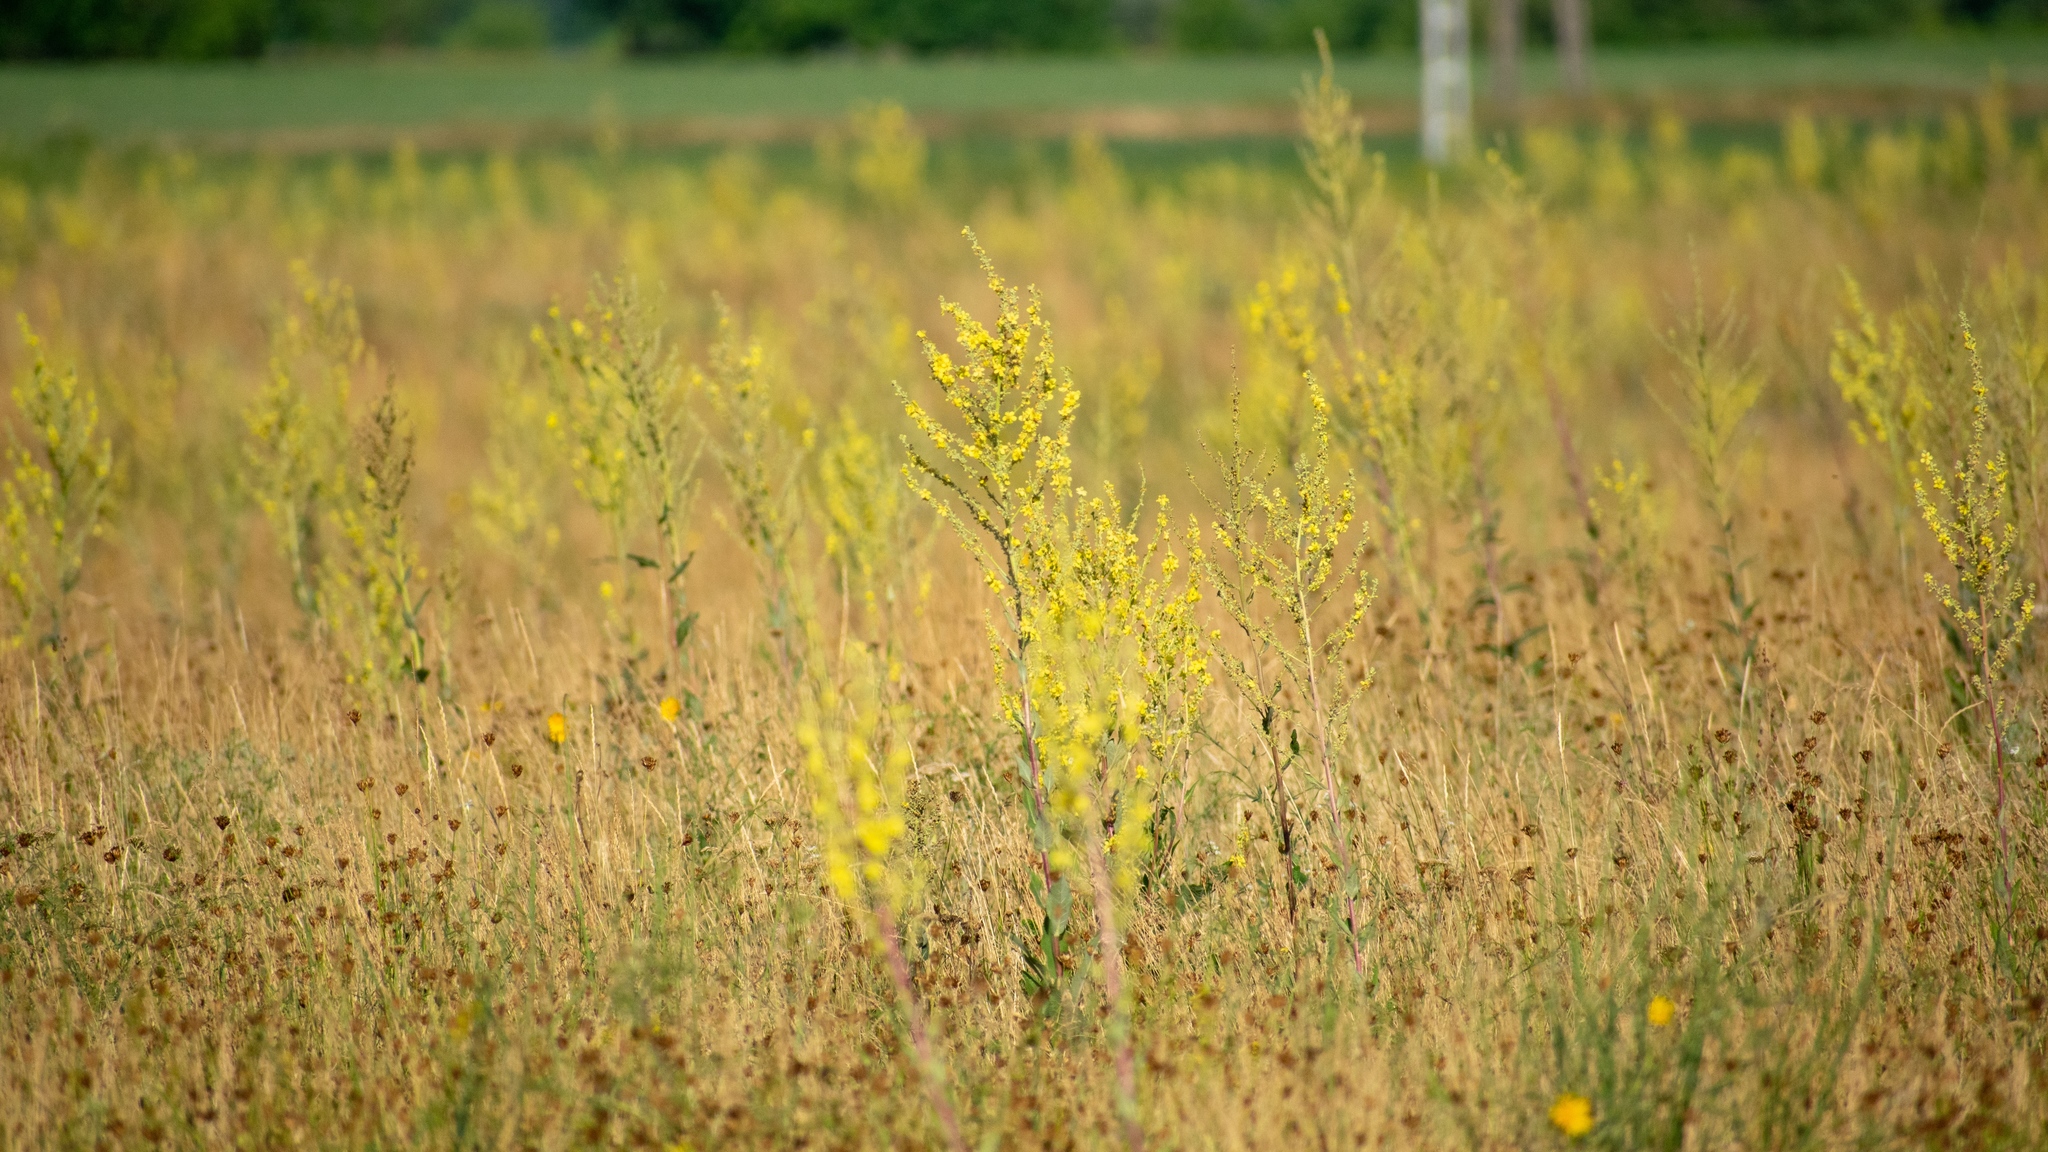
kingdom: Plantae
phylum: Tracheophyta
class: Magnoliopsida
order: Lamiales
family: Scrophulariaceae
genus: Verbascum
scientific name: Verbascum lychnitis
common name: White mullein
